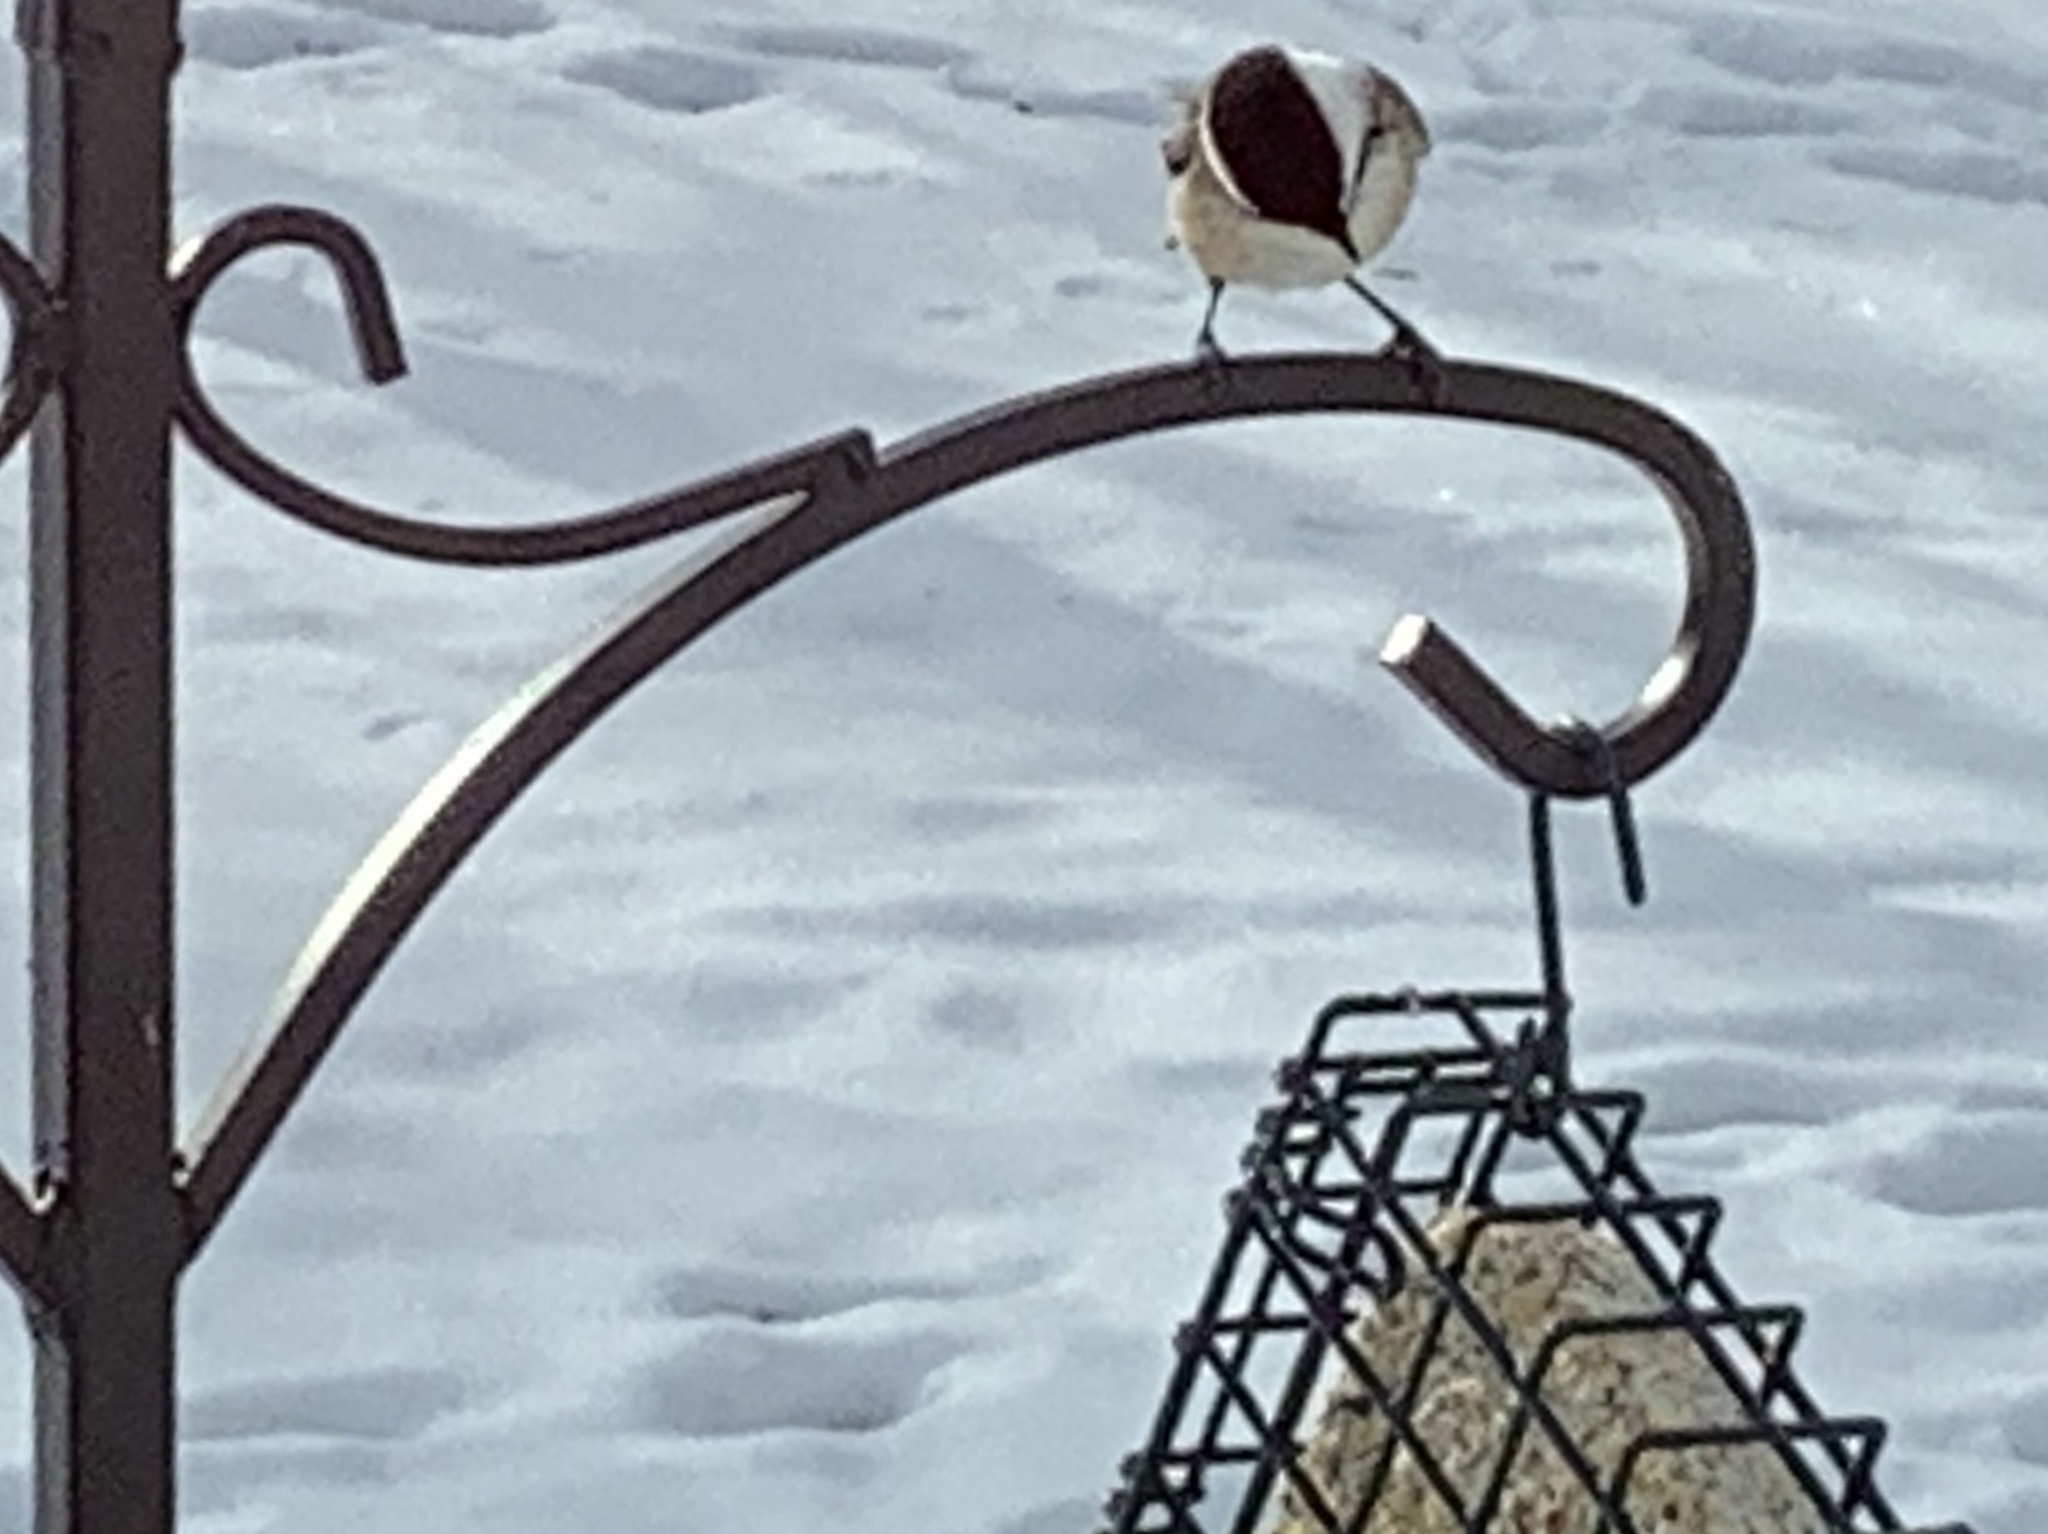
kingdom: Animalia
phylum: Chordata
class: Aves
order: Passeriformes
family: Paridae
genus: Poecile
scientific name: Poecile atricapillus
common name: Black-capped chickadee
